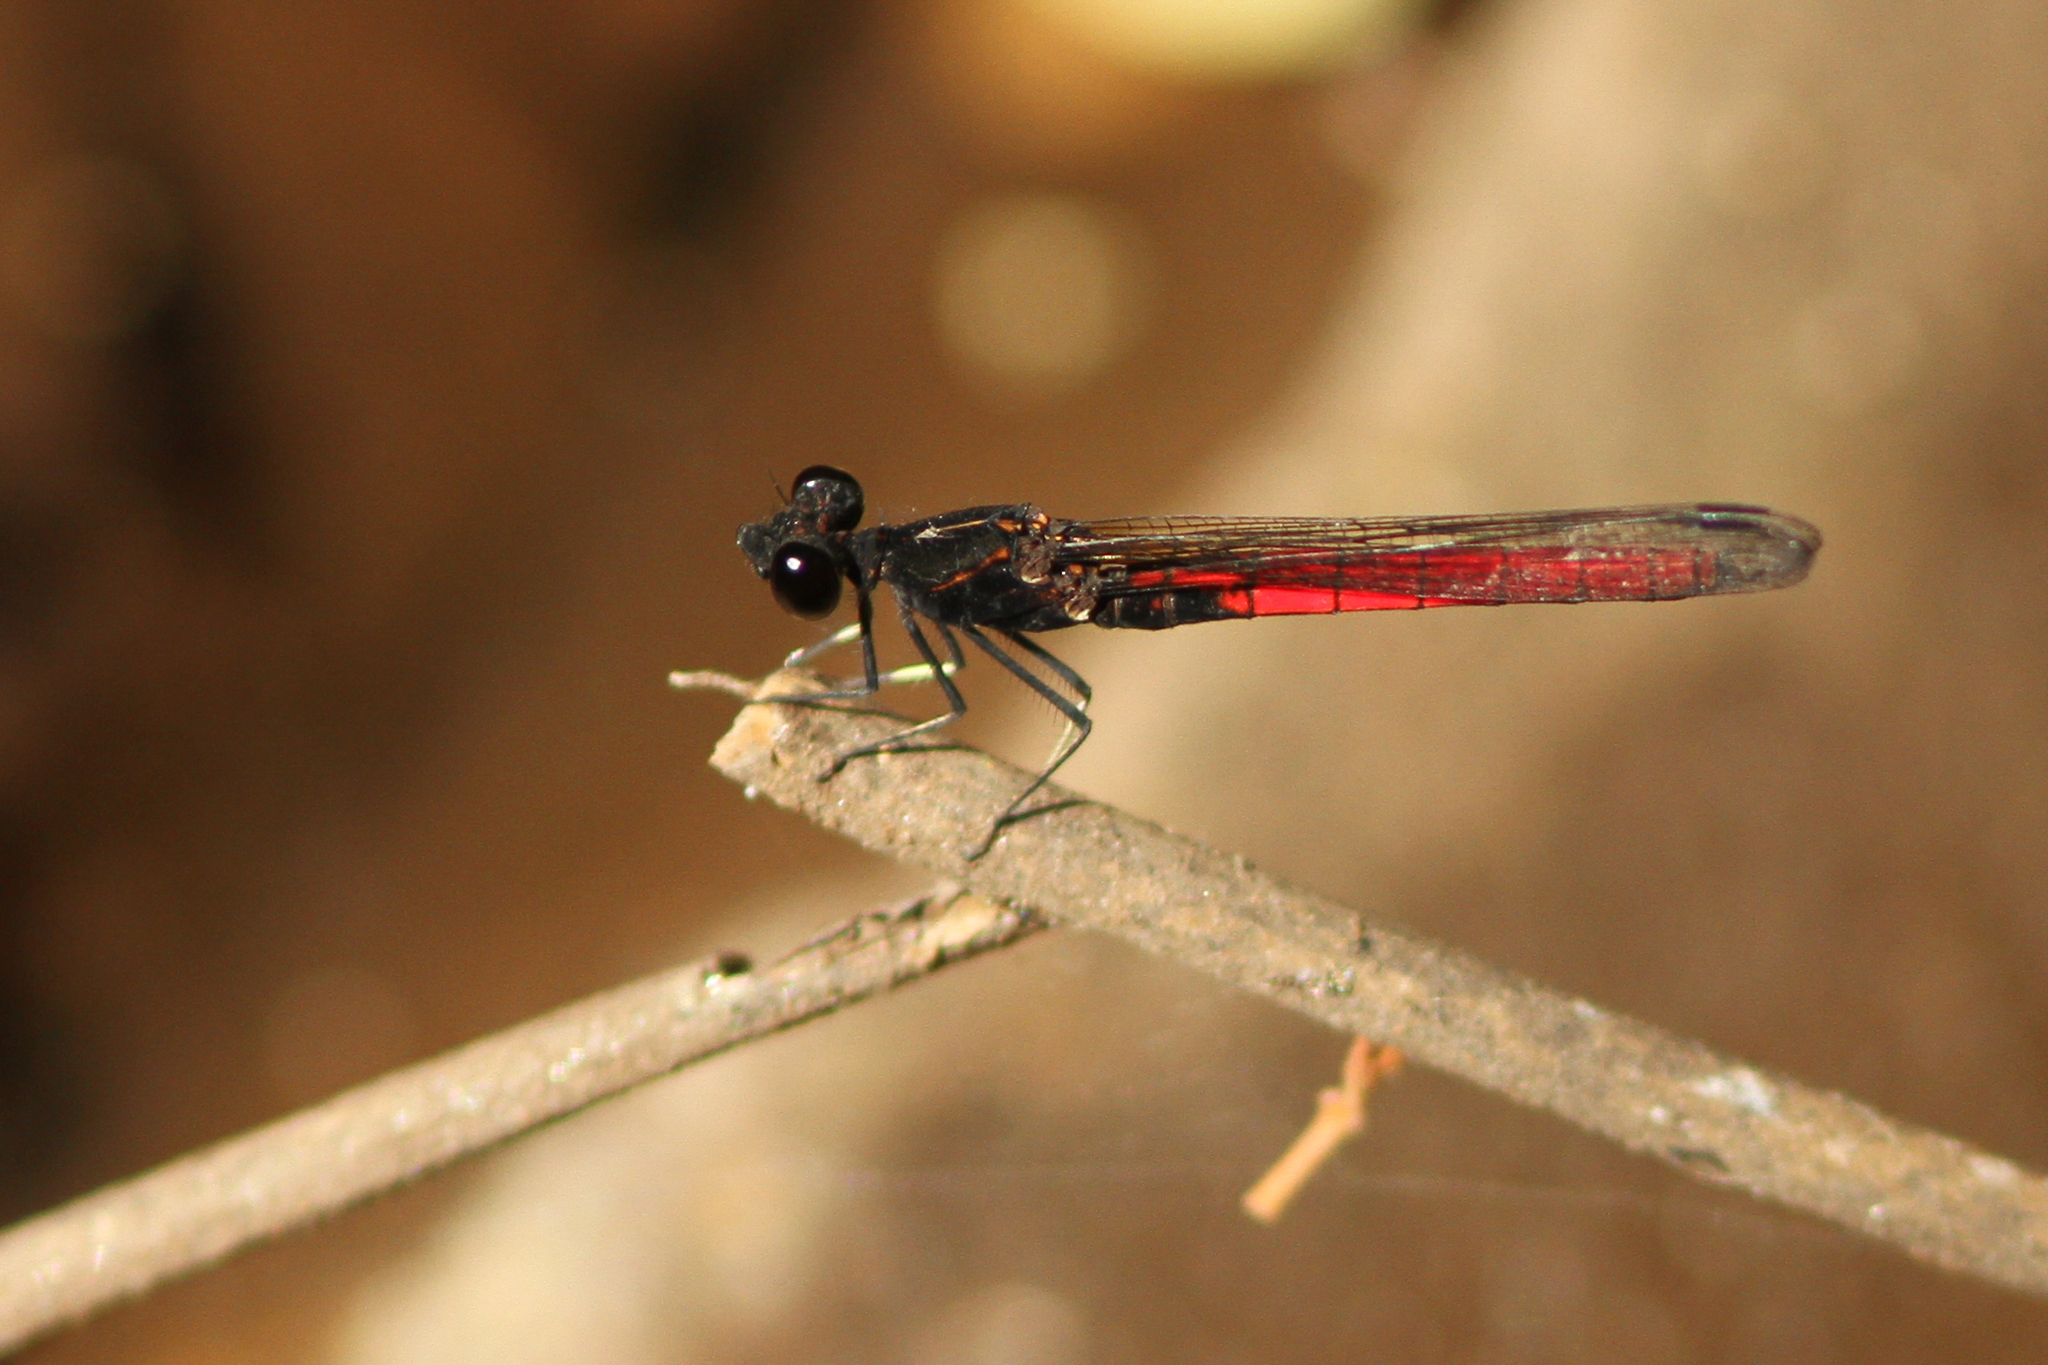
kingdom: Animalia
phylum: Arthropoda
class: Insecta
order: Odonata
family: Chlorocyphidae
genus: Chlorocypha
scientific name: Chlorocypha dispar
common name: Little red jewel
